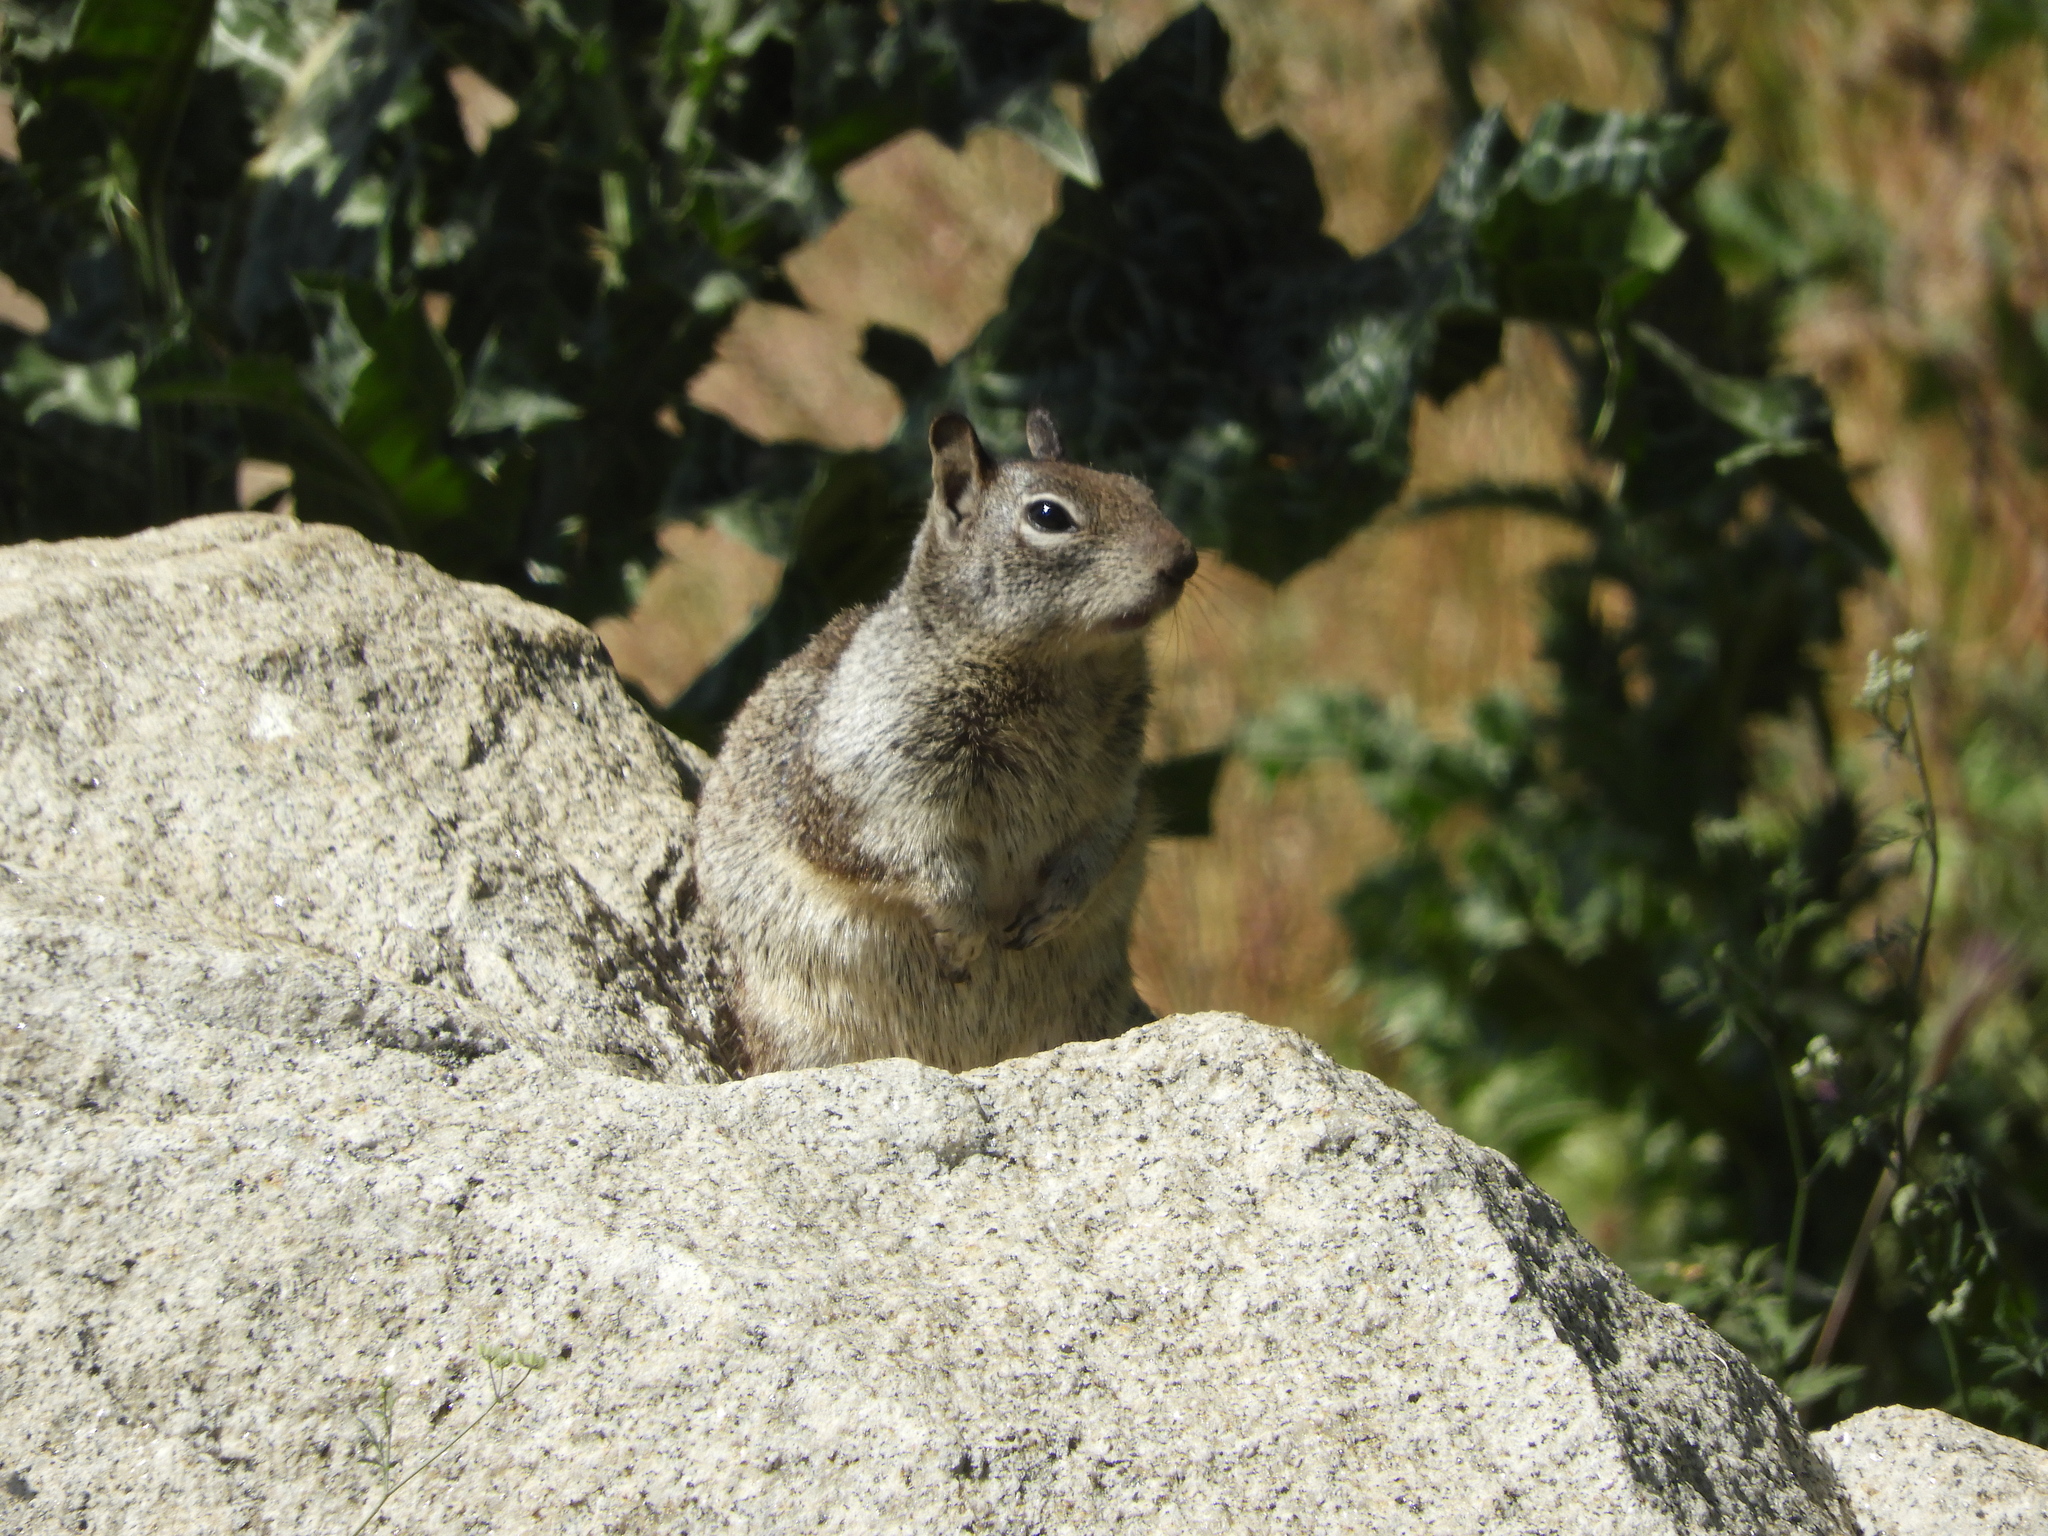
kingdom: Animalia
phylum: Chordata
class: Mammalia
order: Rodentia
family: Sciuridae
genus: Otospermophilus
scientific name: Otospermophilus beecheyi
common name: California ground squirrel
